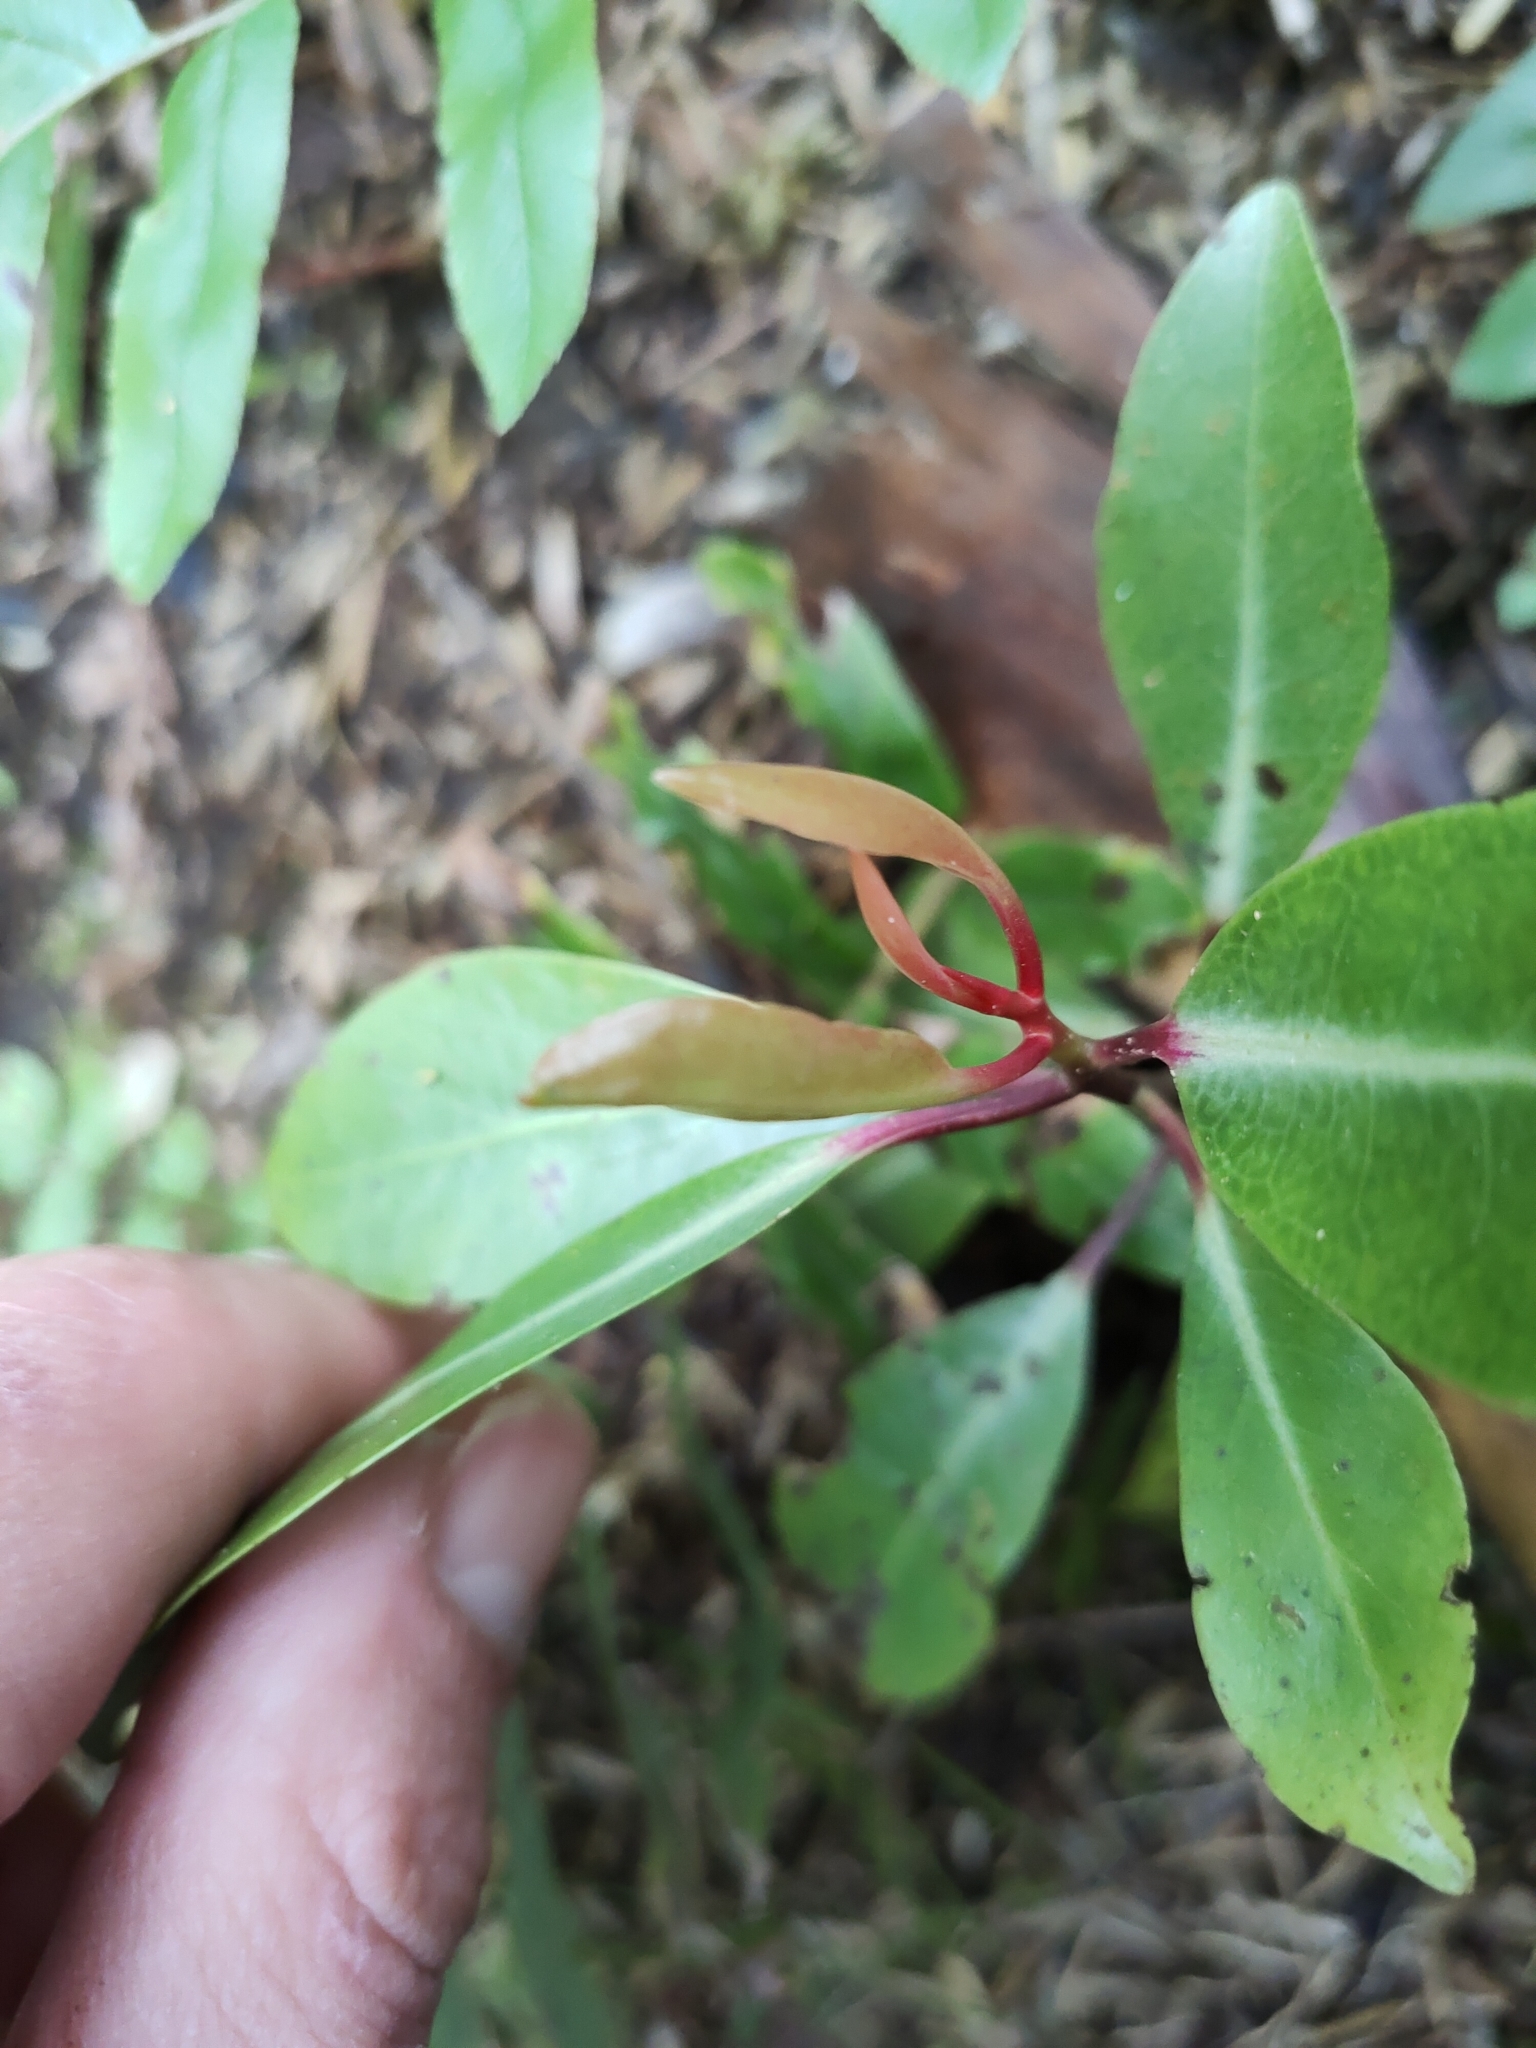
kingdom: Plantae
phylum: Tracheophyta
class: Magnoliopsida
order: Canellales
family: Winteraceae
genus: Pseudowintera
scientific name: Pseudowintera axillaris
